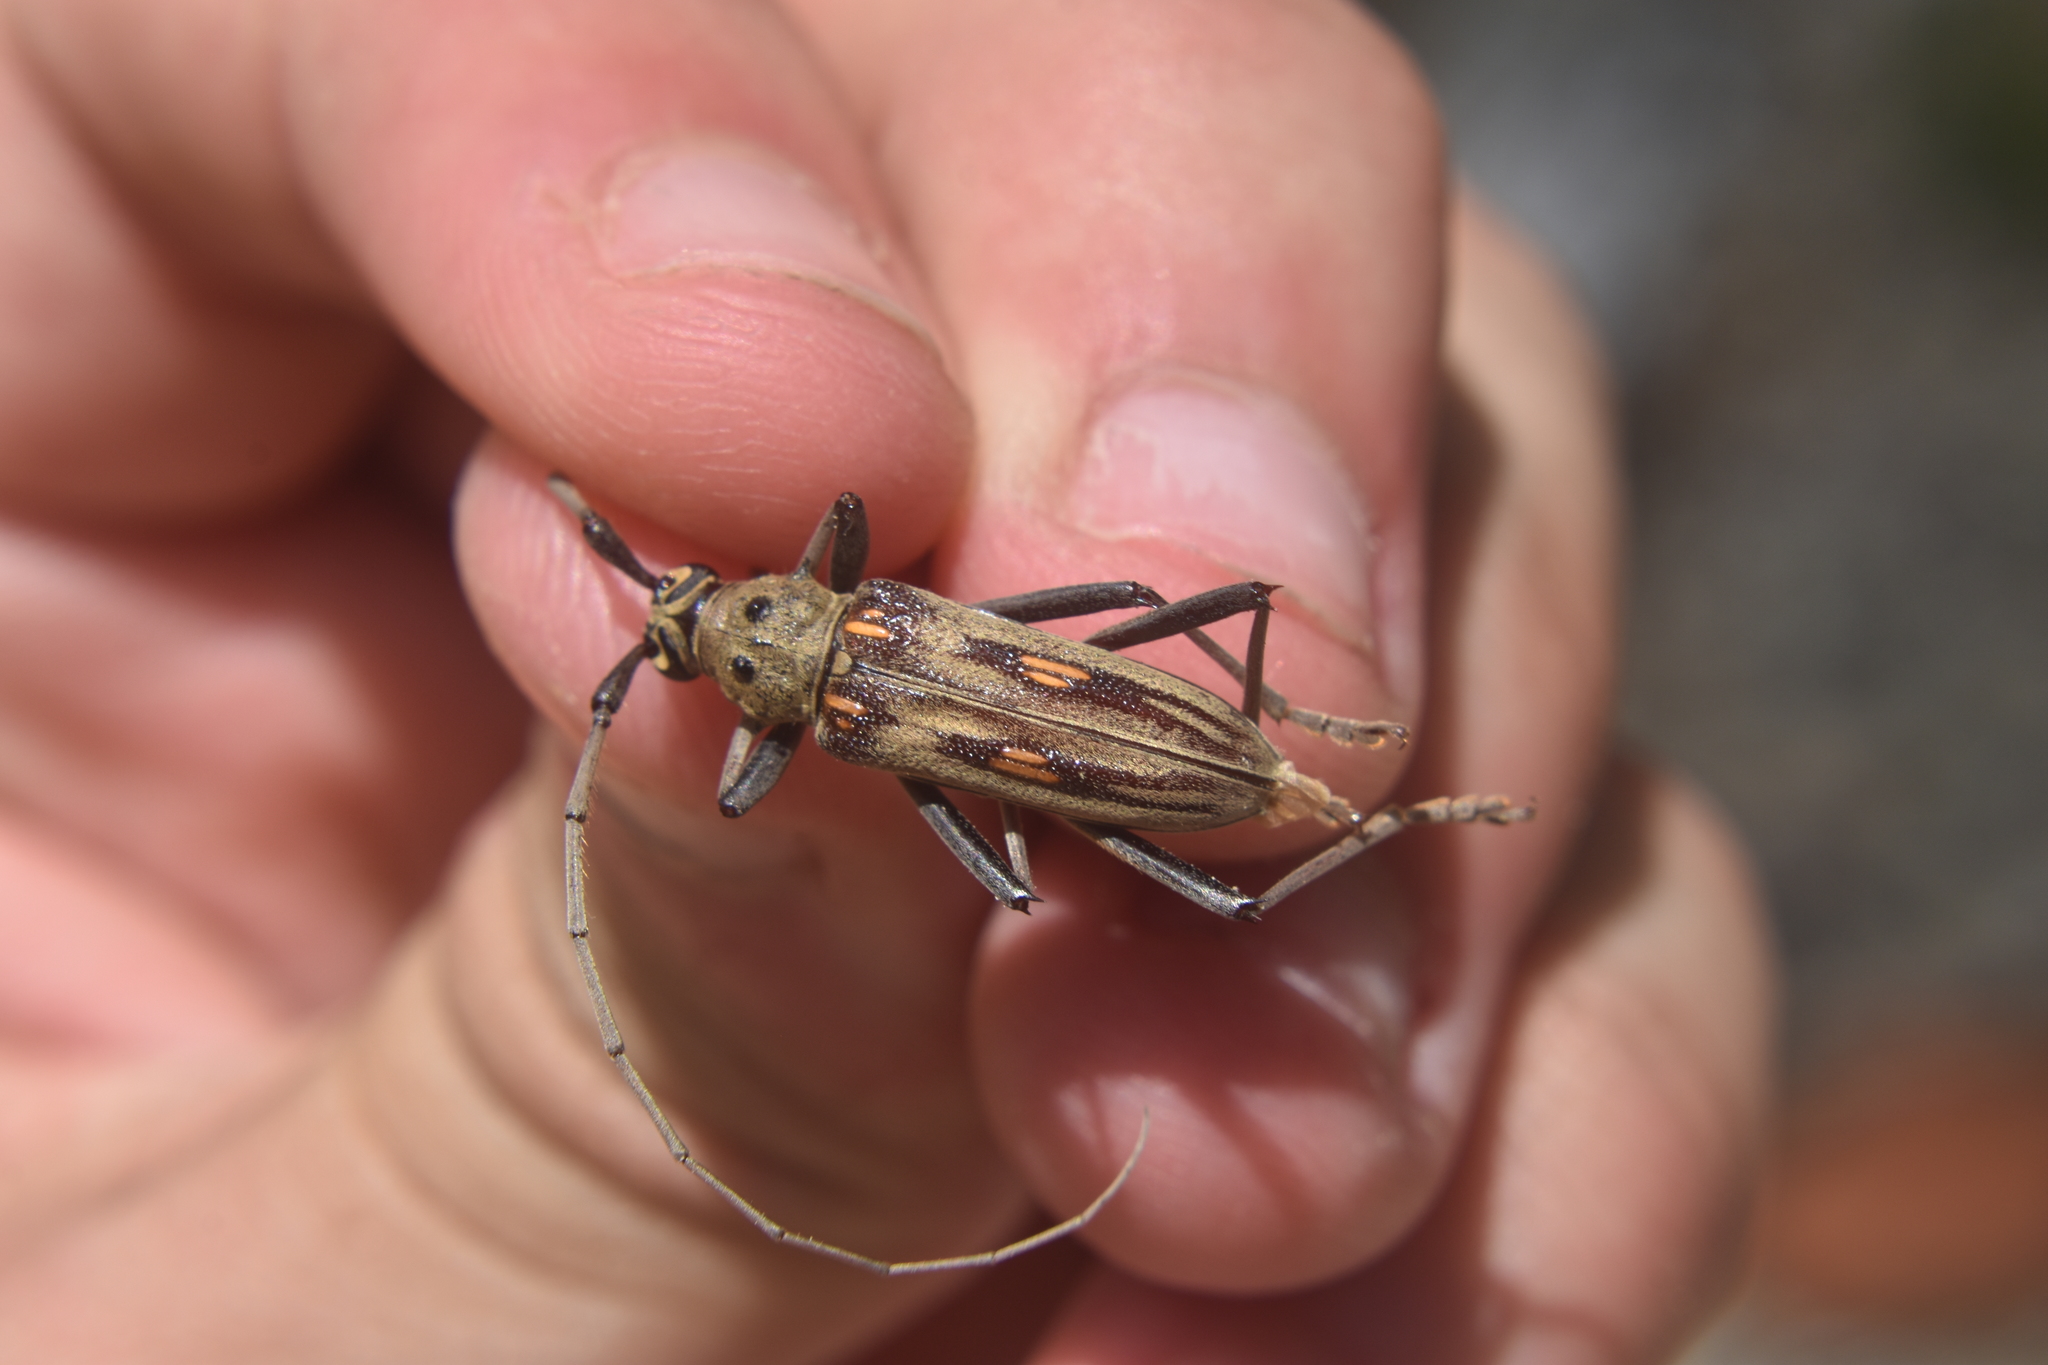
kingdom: Animalia
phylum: Arthropoda
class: Insecta
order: Coleoptera
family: Cerambycidae
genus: Eburia
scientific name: Eburia stigma
